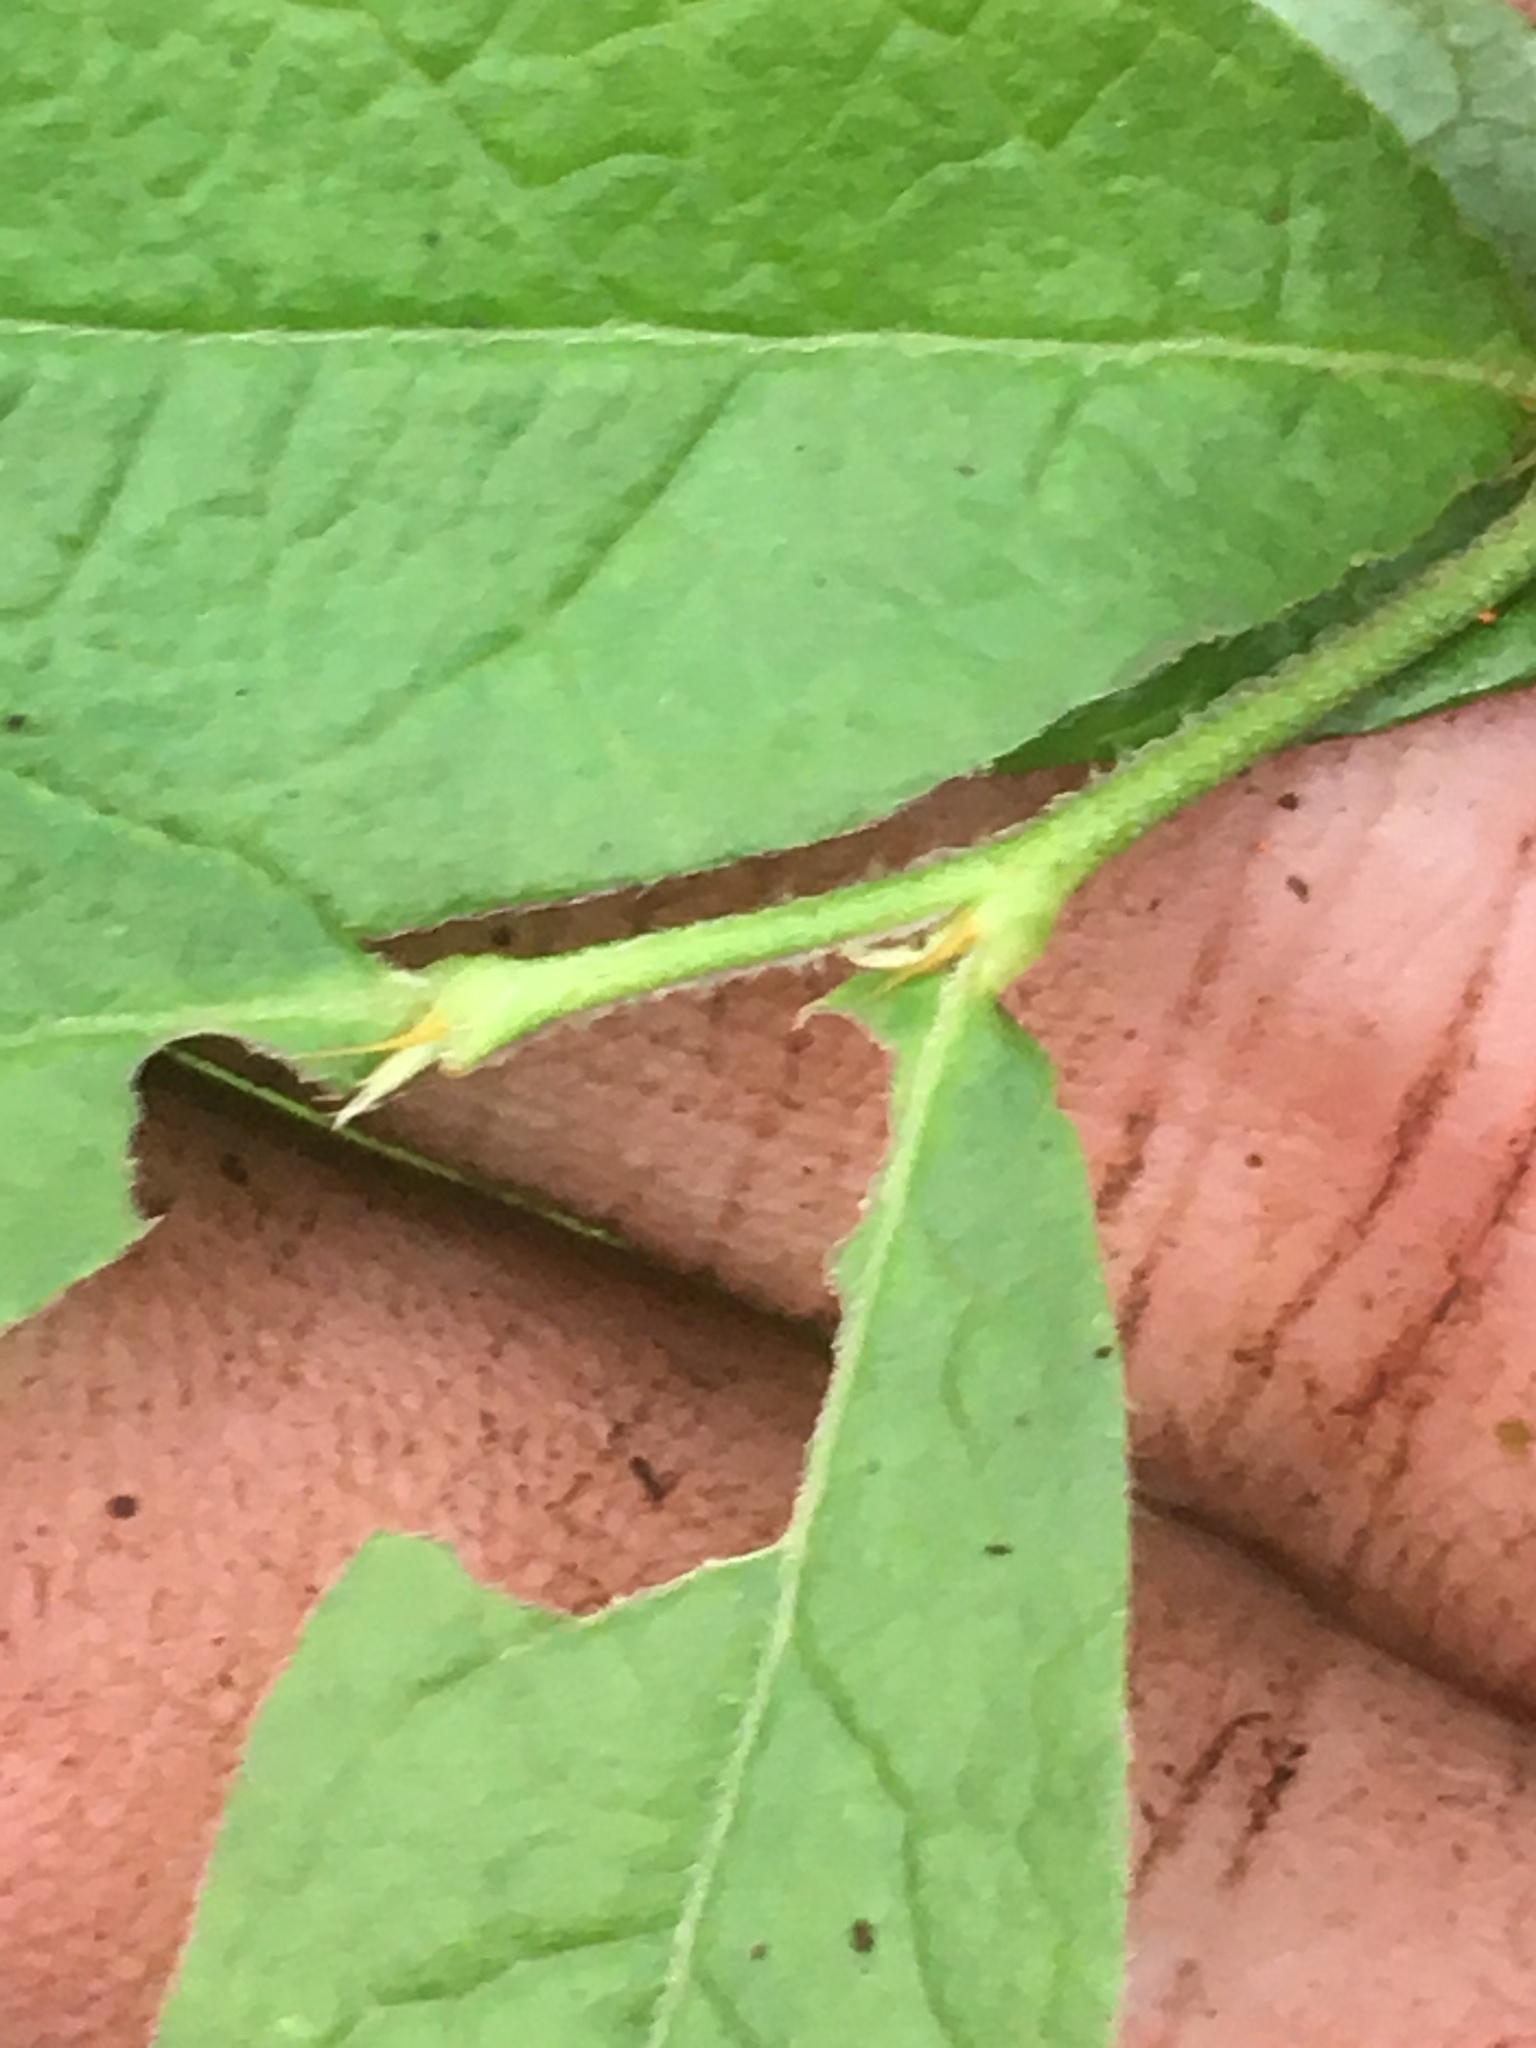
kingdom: Plantae
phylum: Tracheophyta
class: Magnoliopsida
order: Ericales
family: Ericaceae
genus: Vaccinium
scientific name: Vaccinium myrtilloides
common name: Canada blueberry
